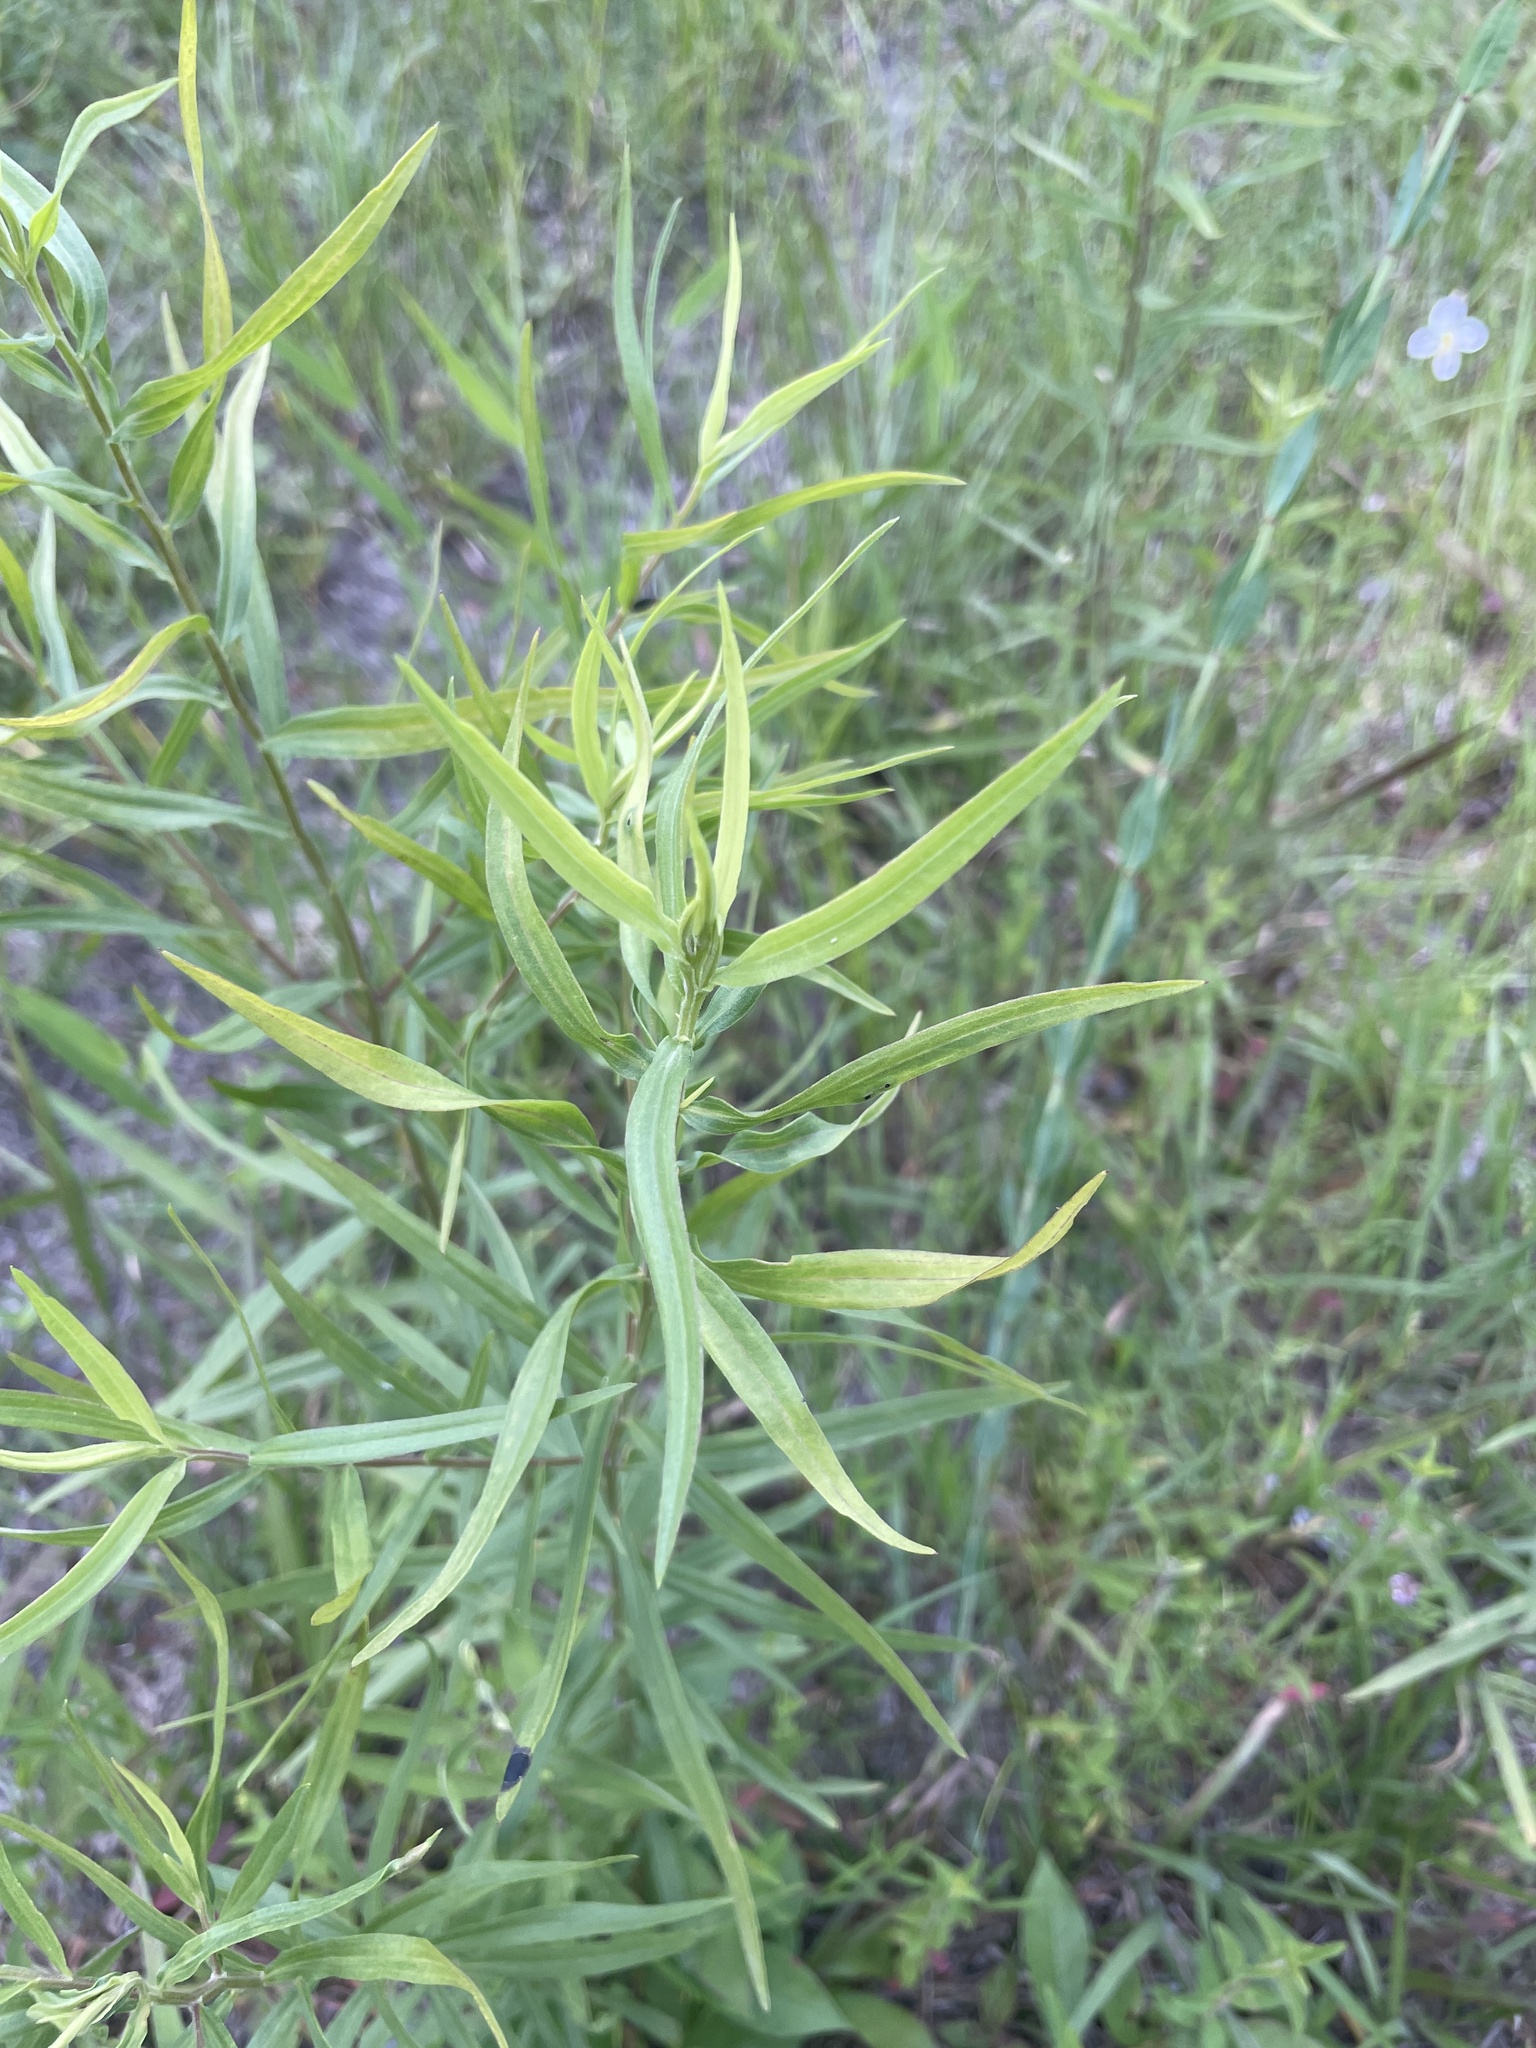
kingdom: Plantae
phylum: Tracheophyta
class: Magnoliopsida
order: Asterales
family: Asteraceae
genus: Euthamia
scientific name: Euthamia scabra
